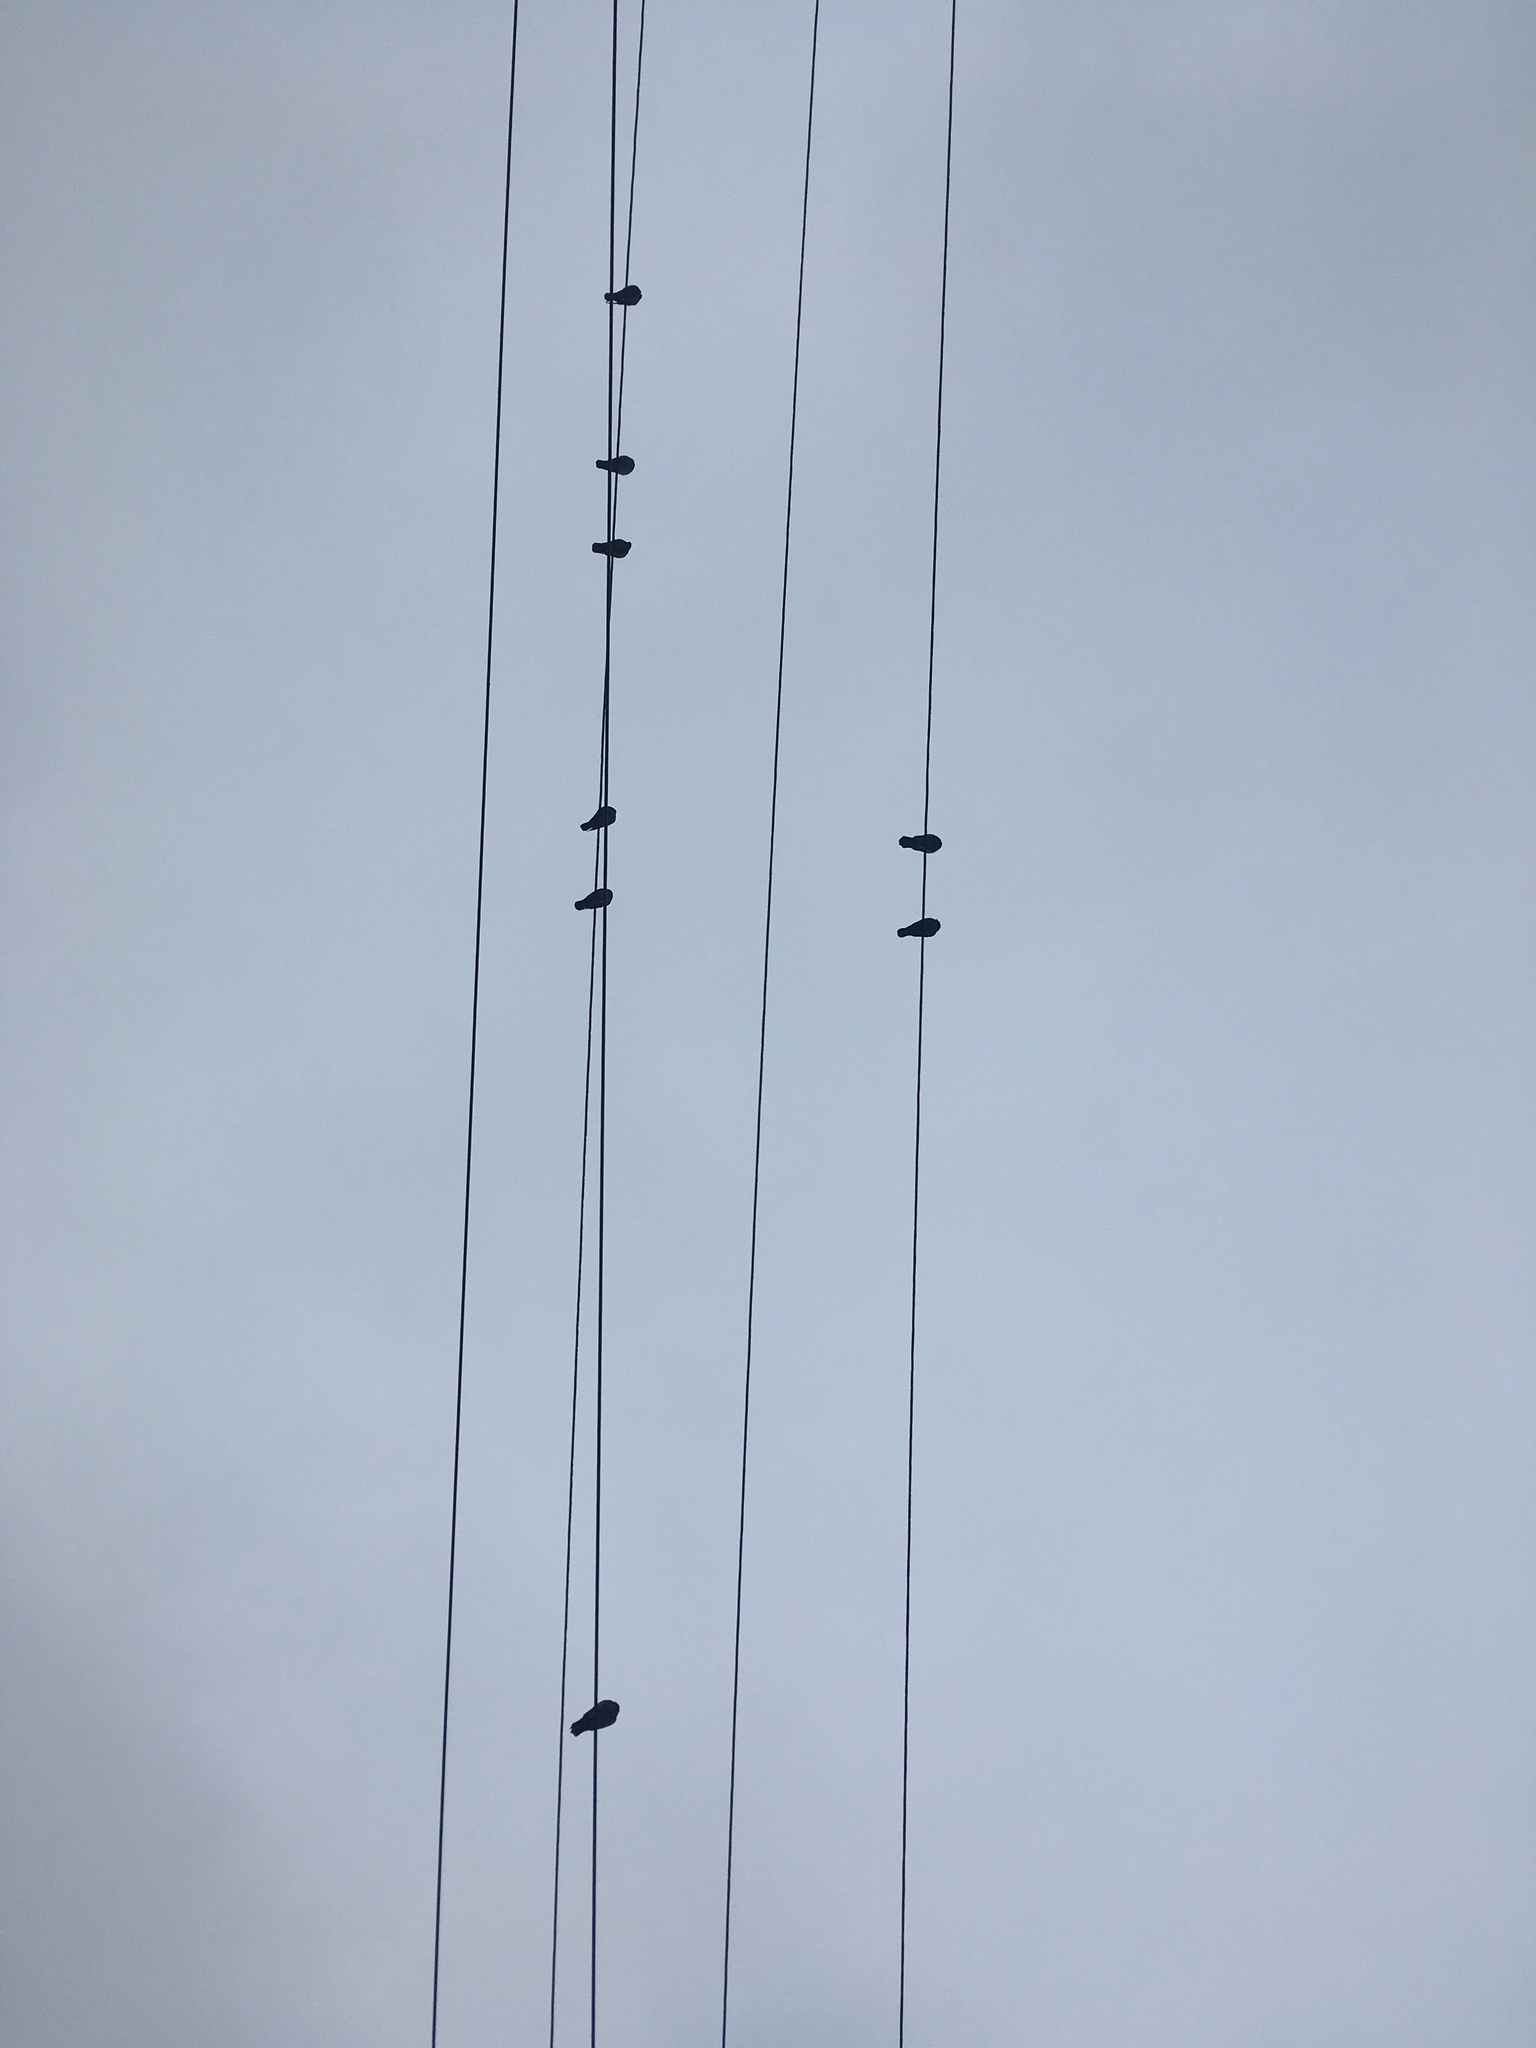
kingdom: Animalia
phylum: Chordata
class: Aves
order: Columbiformes
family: Columbidae
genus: Columba
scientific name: Columba livia
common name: Rock pigeon
